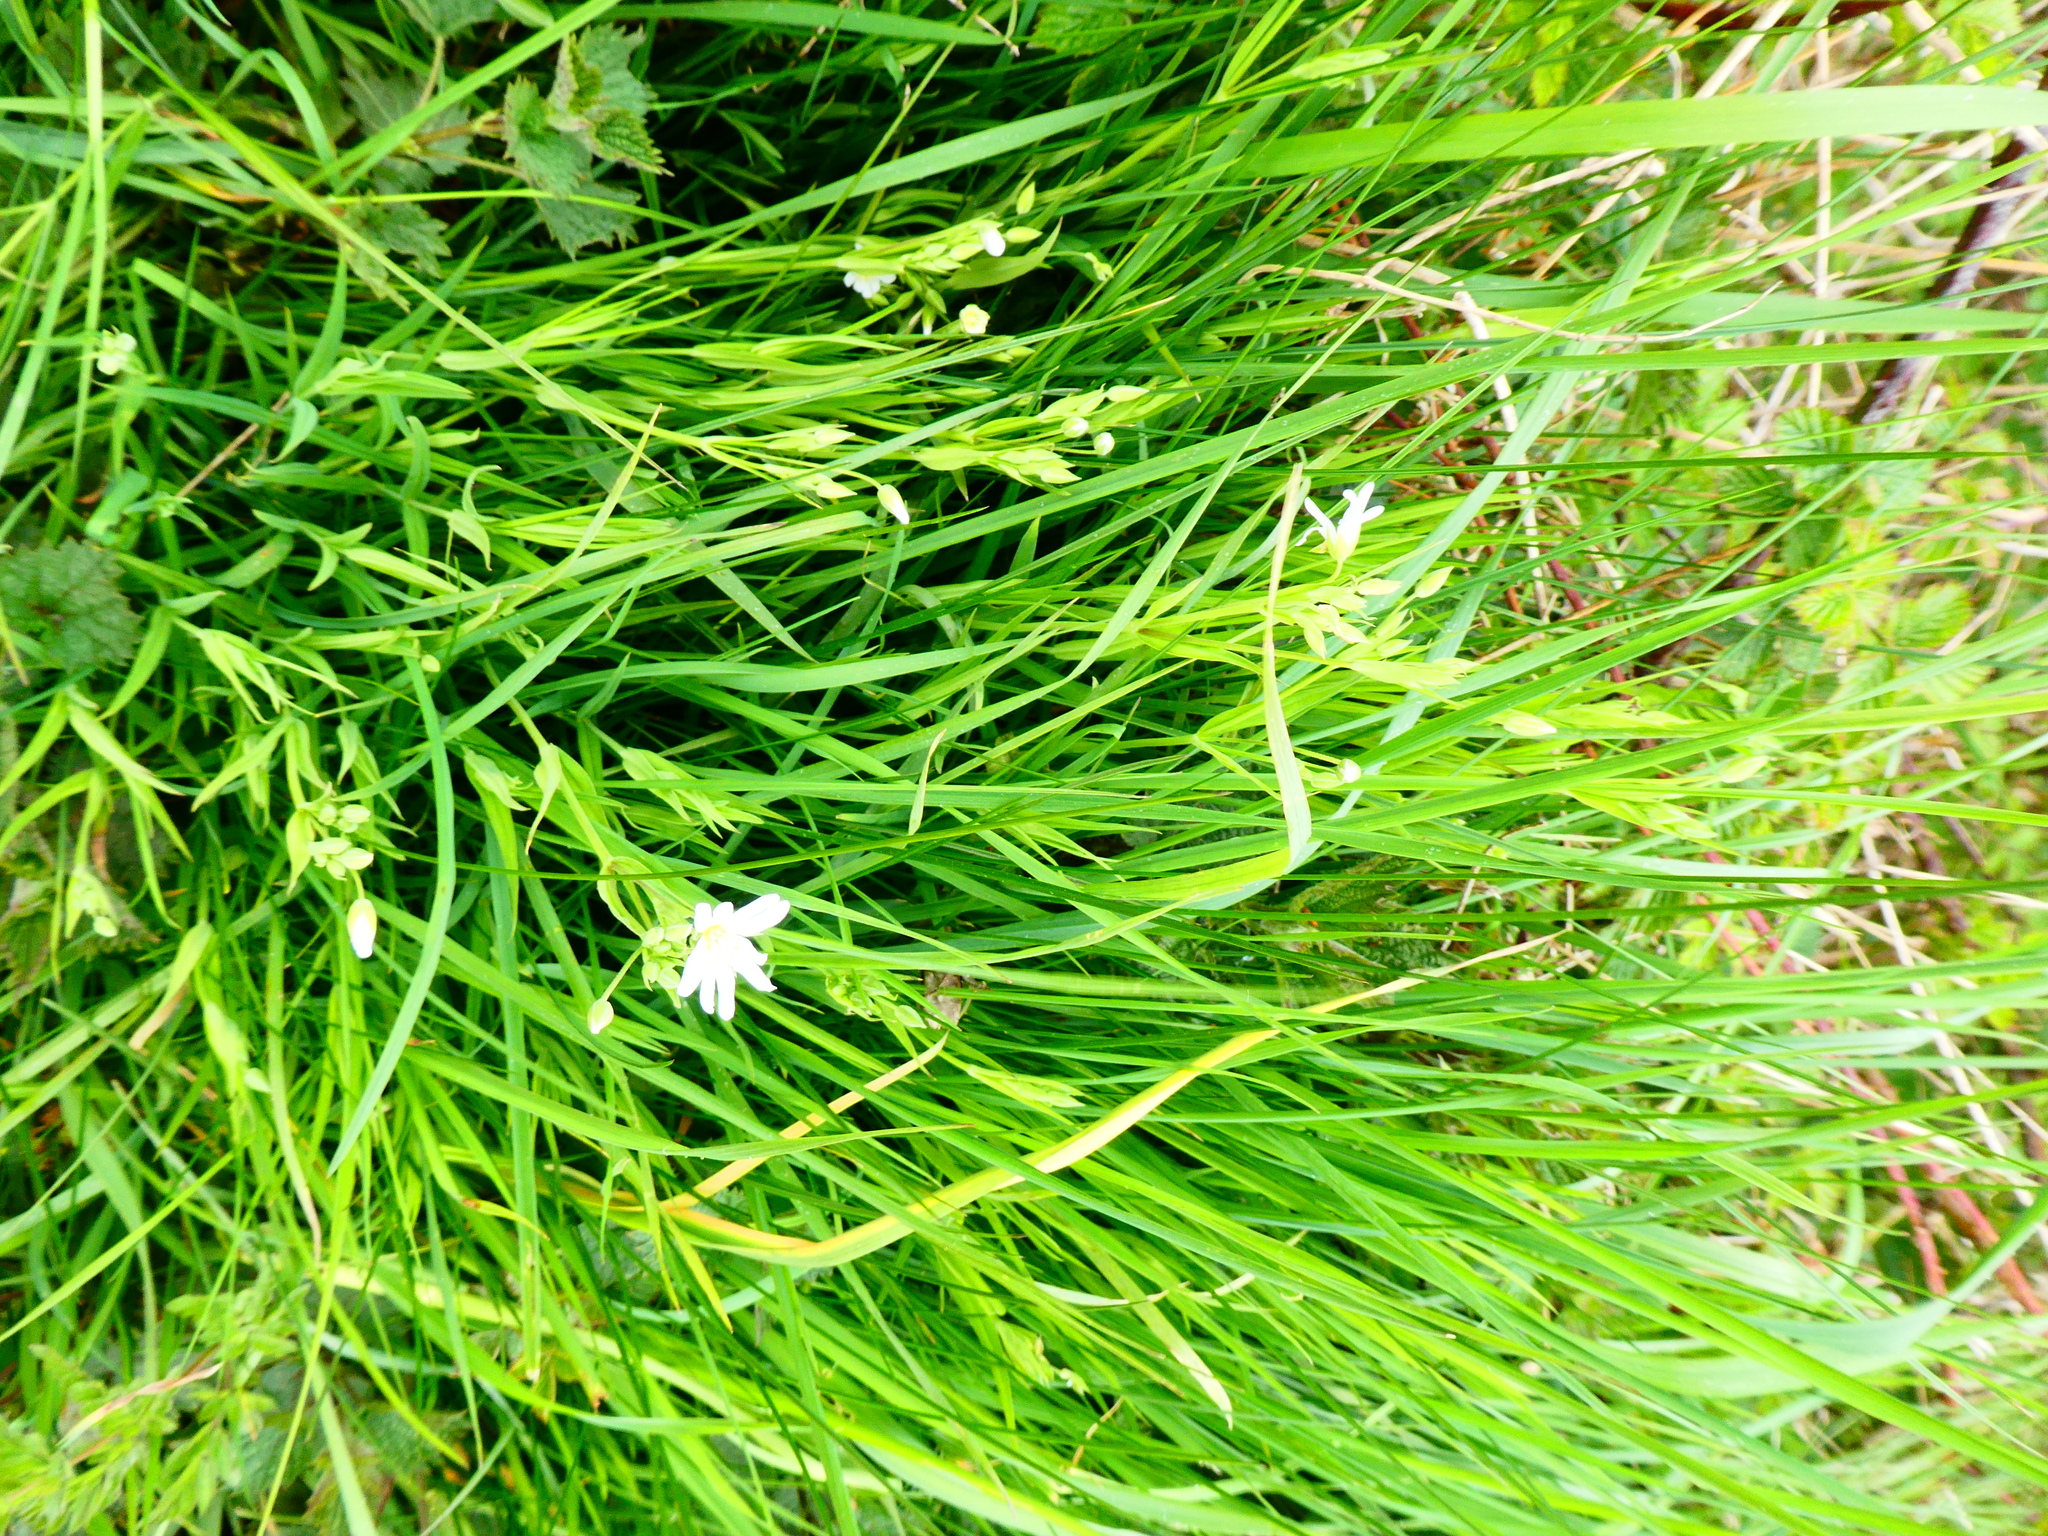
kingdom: Plantae
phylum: Tracheophyta
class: Magnoliopsida
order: Caryophyllales
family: Caryophyllaceae
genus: Rabelera
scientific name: Rabelera holostea
